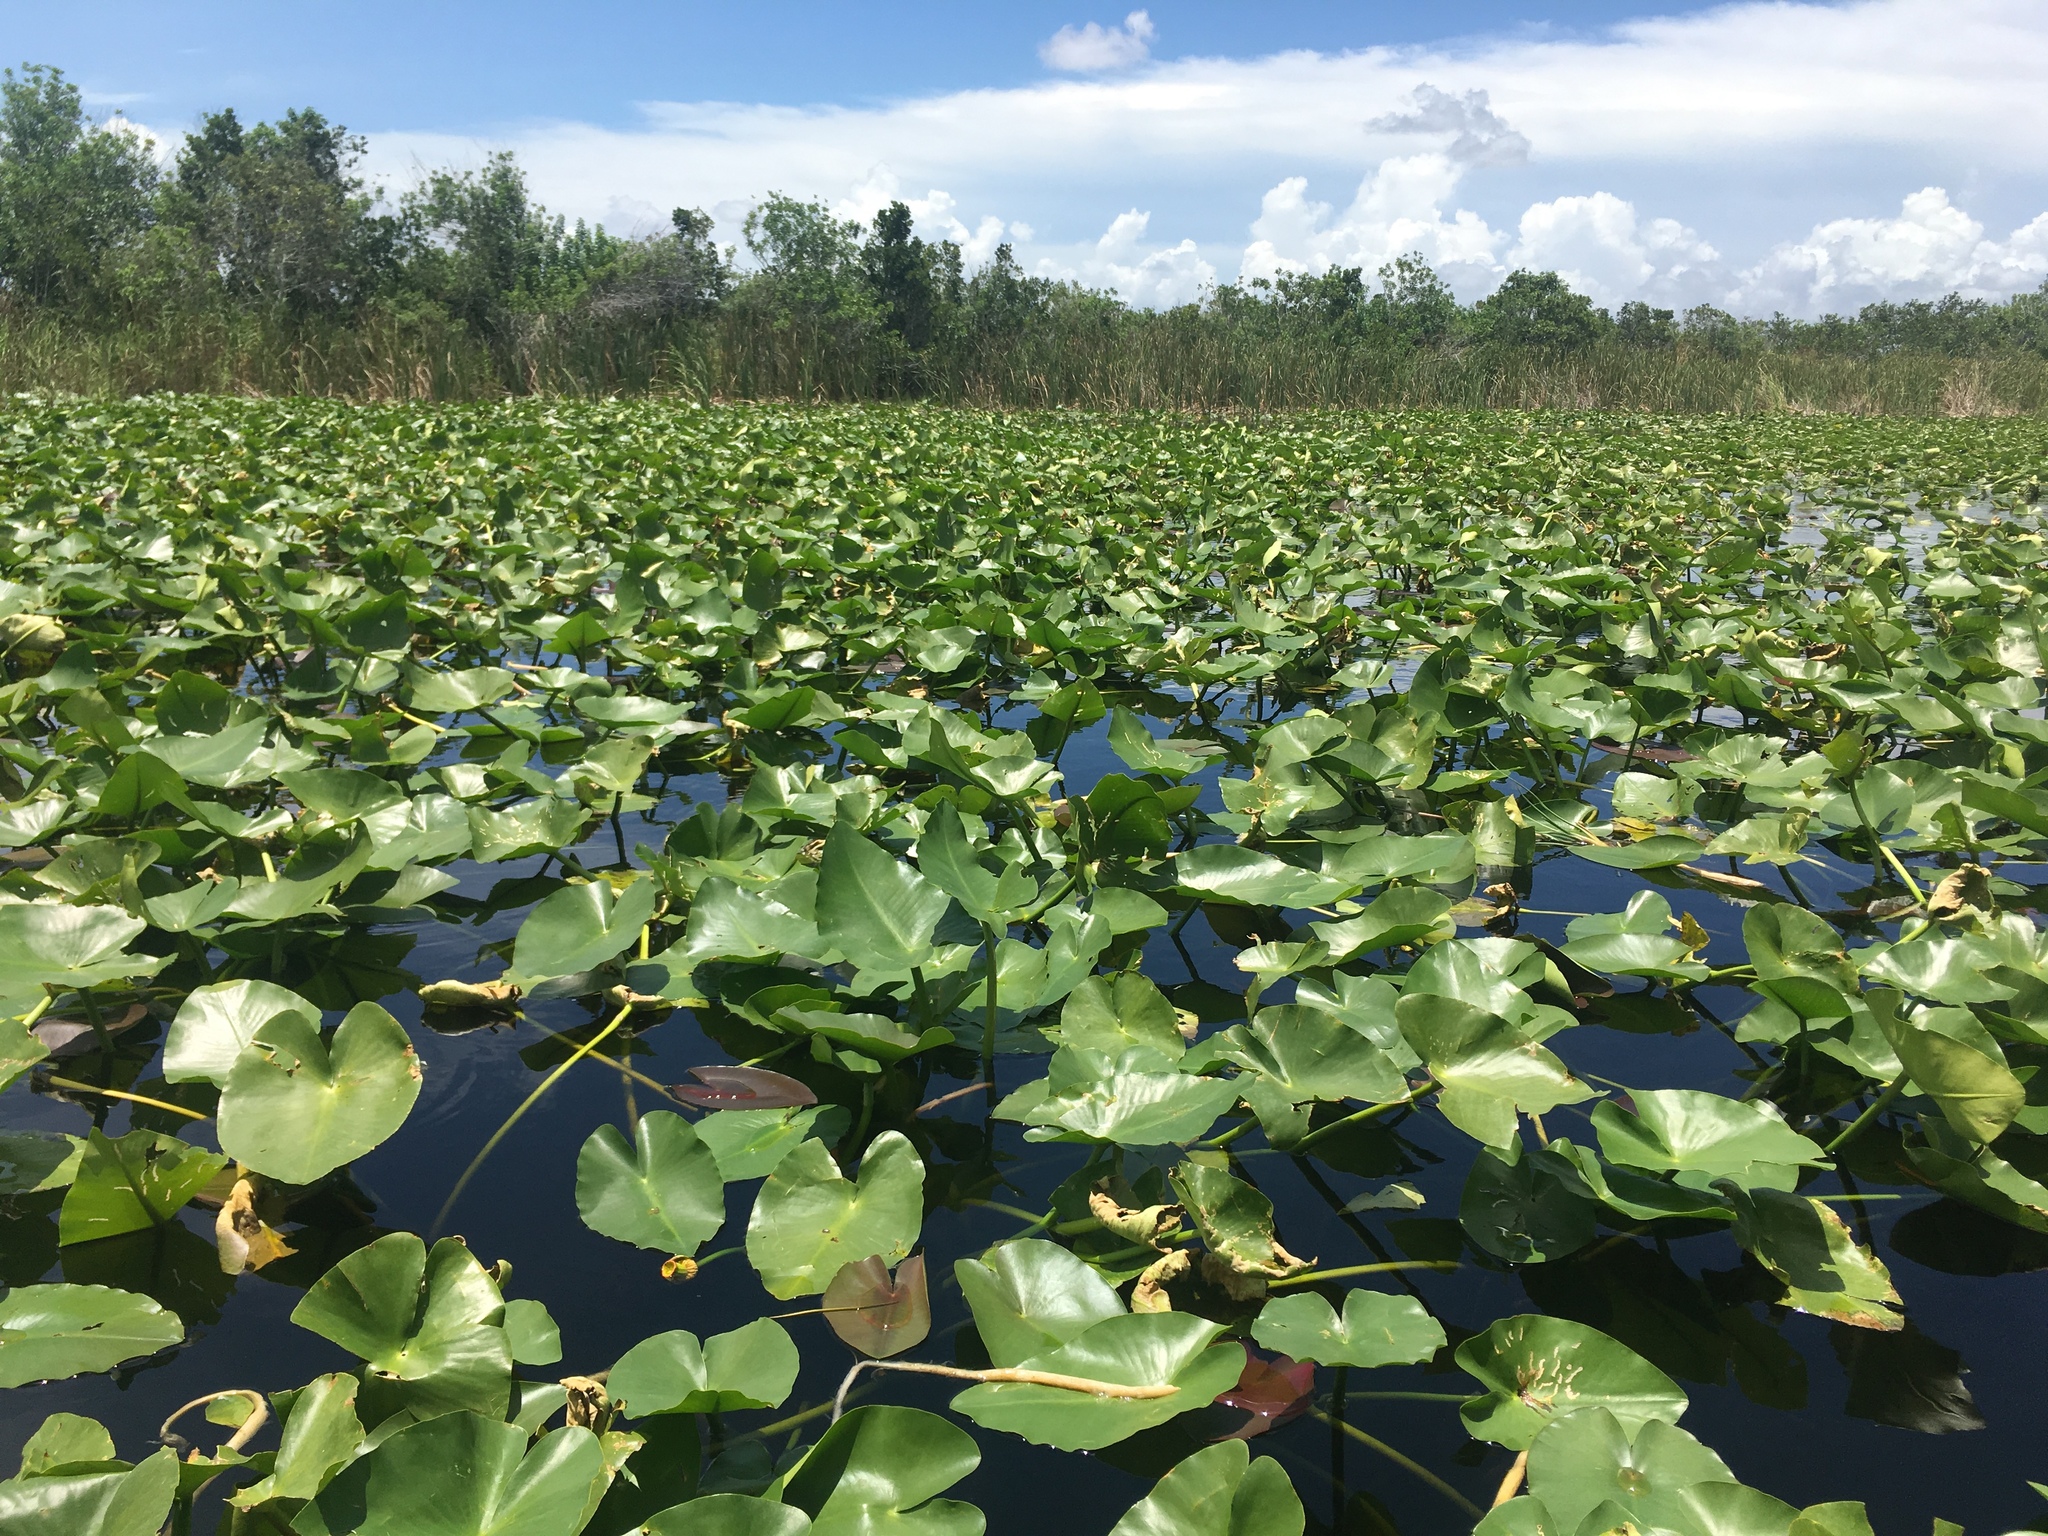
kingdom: Plantae
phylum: Tracheophyta
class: Magnoliopsida
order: Nymphaeales
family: Nymphaeaceae
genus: Nuphar
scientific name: Nuphar advena
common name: Spatter-dock
